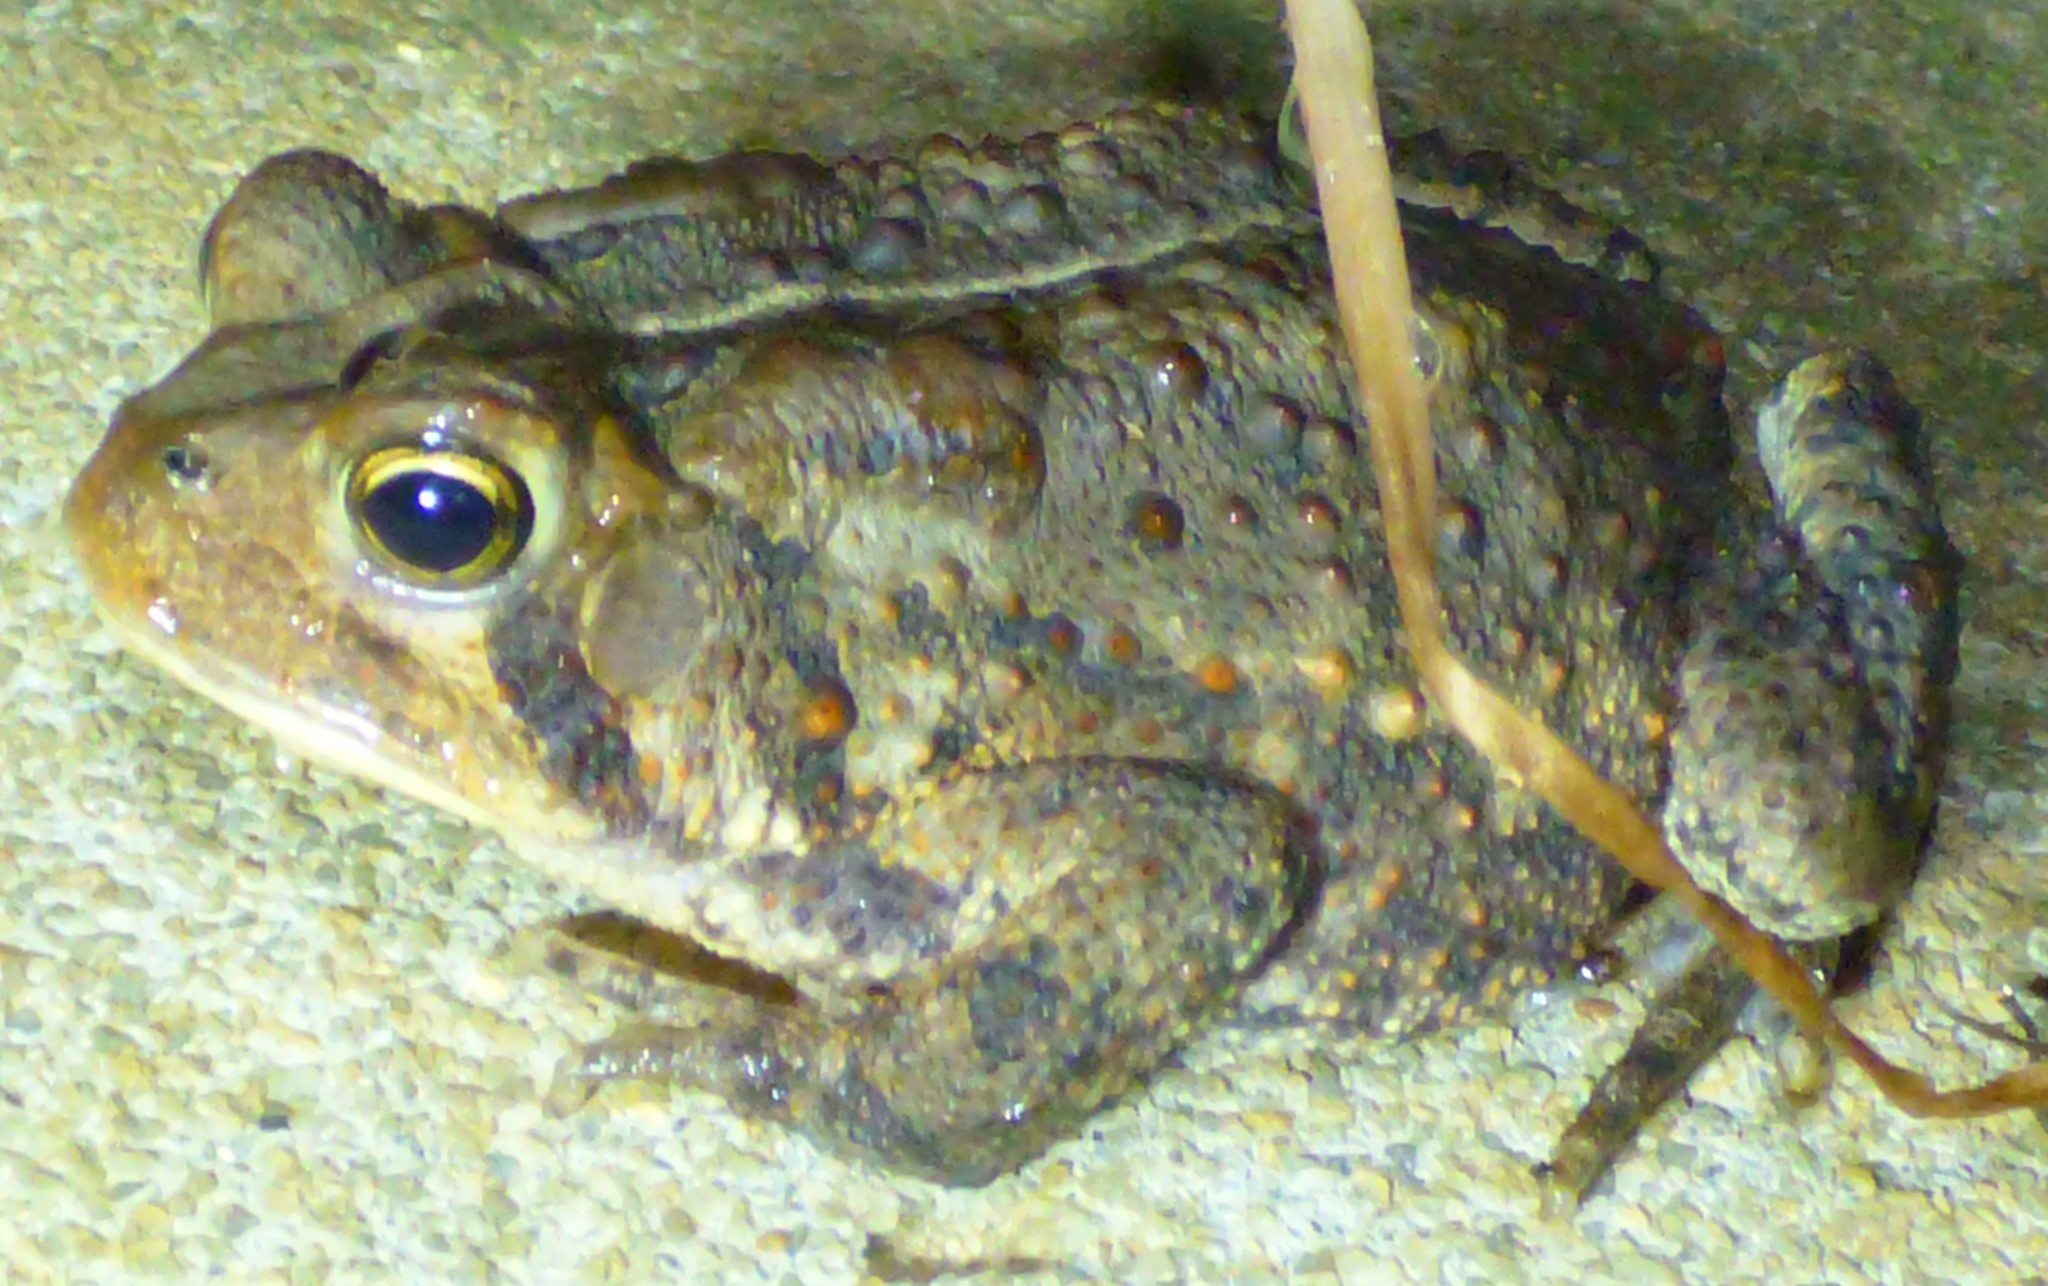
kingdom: Animalia
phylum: Chordata
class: Amphibia
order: Anura
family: Bufonidae
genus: Anaxyrus
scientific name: Anaxyrus
